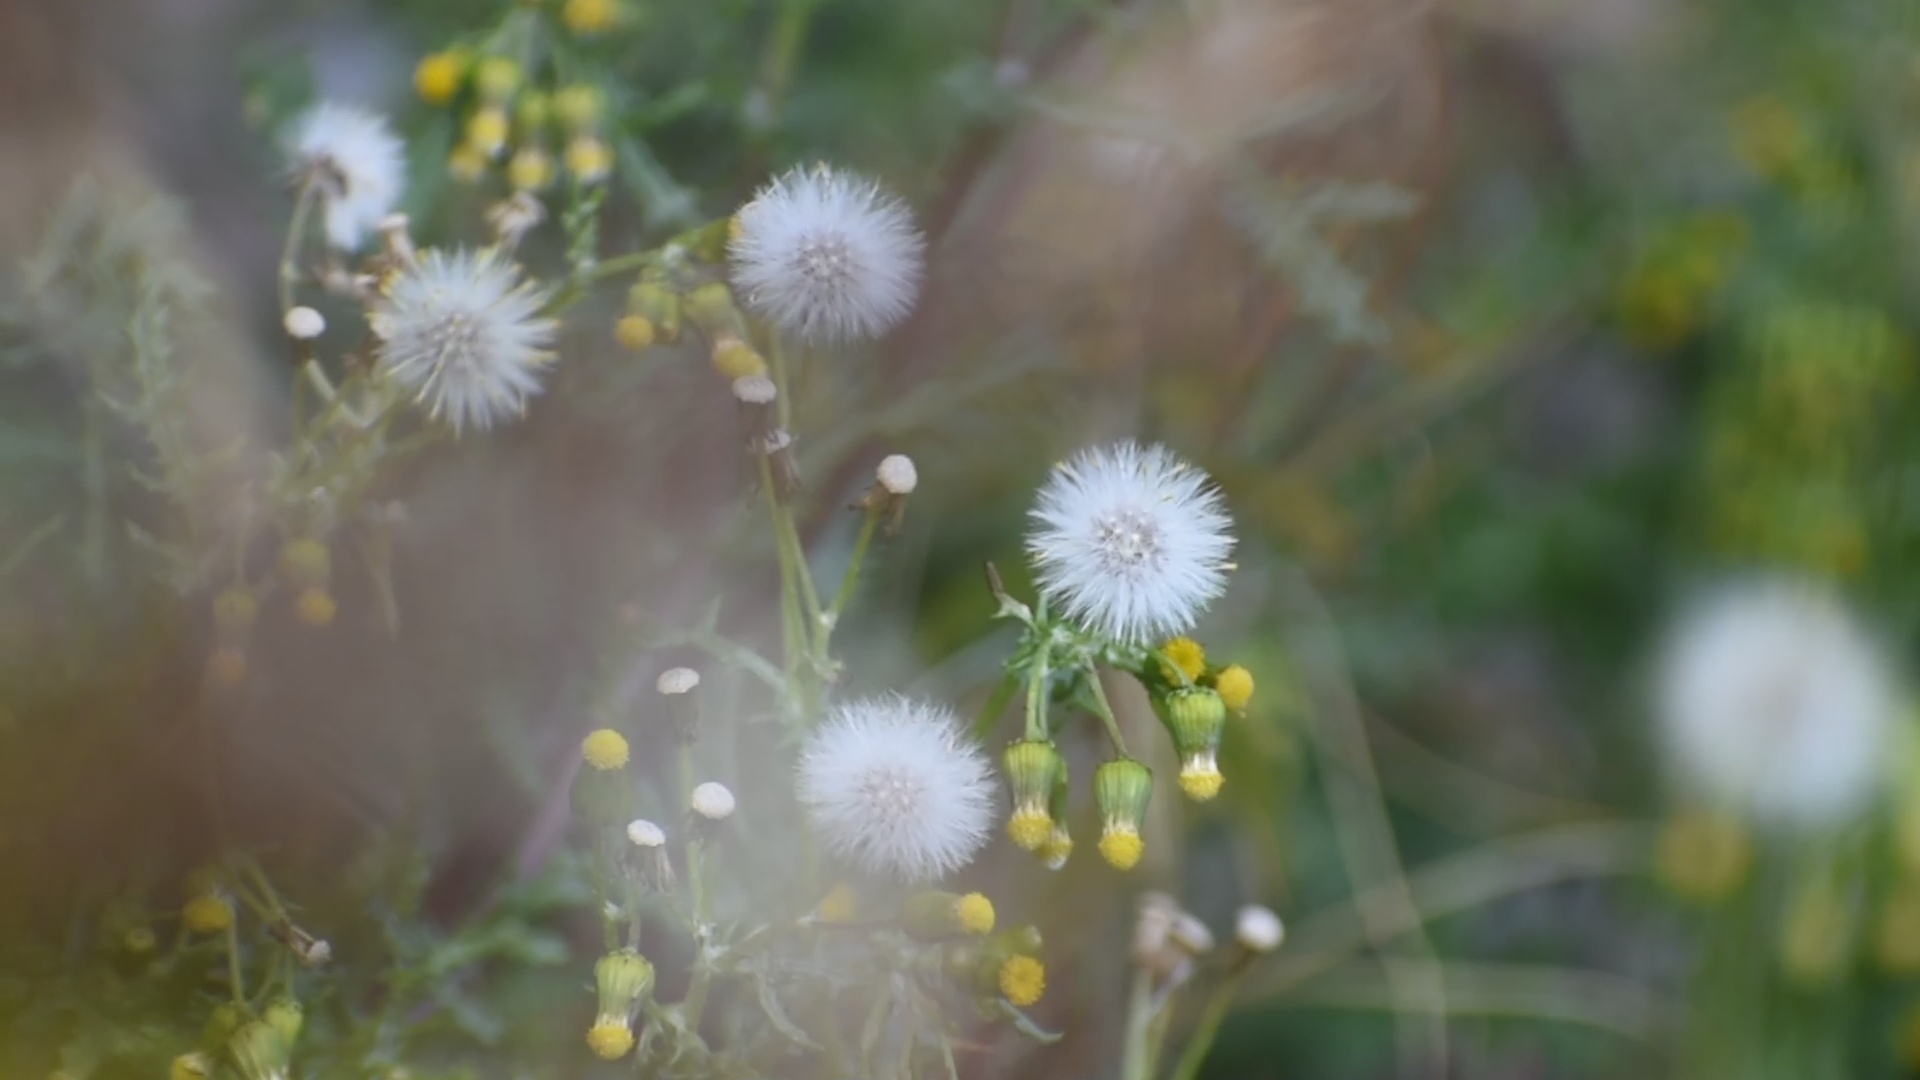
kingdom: Plantae
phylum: Tracheophyta
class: Magnoliopsida
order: Asterales
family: Asteraceae
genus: Senecio
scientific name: Senecio vulgaris
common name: Old-man-in-the-spring
